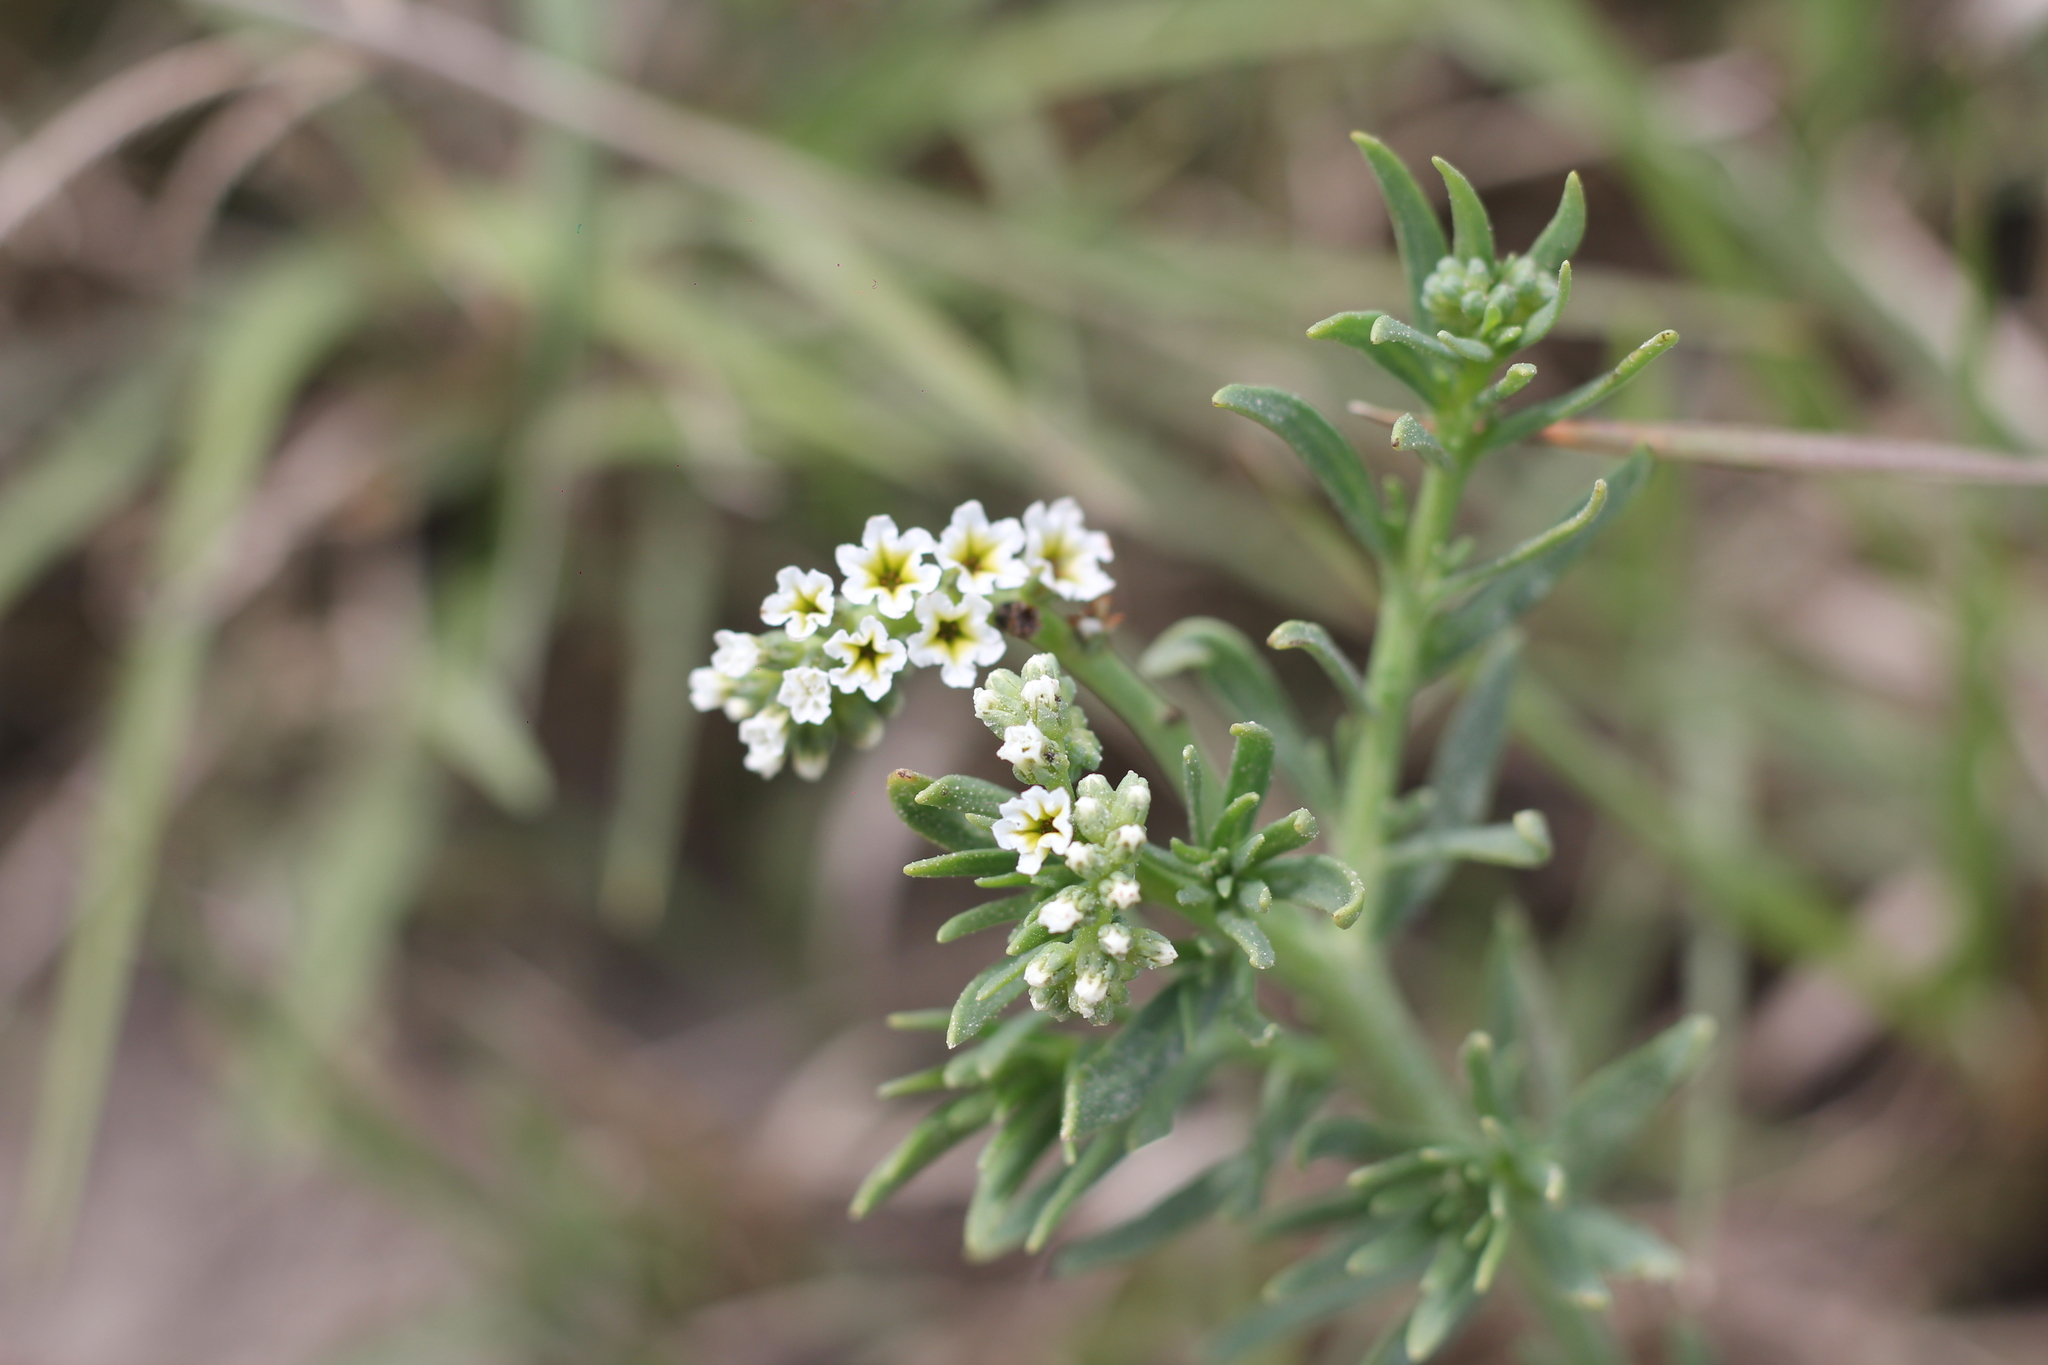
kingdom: Plantae
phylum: Tracheophyta
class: Magnoliopsida
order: Boraginales
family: Heliotropiaceae
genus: Heliotropium
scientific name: Heliotropium curassavicum
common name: Seaside heliotrope
